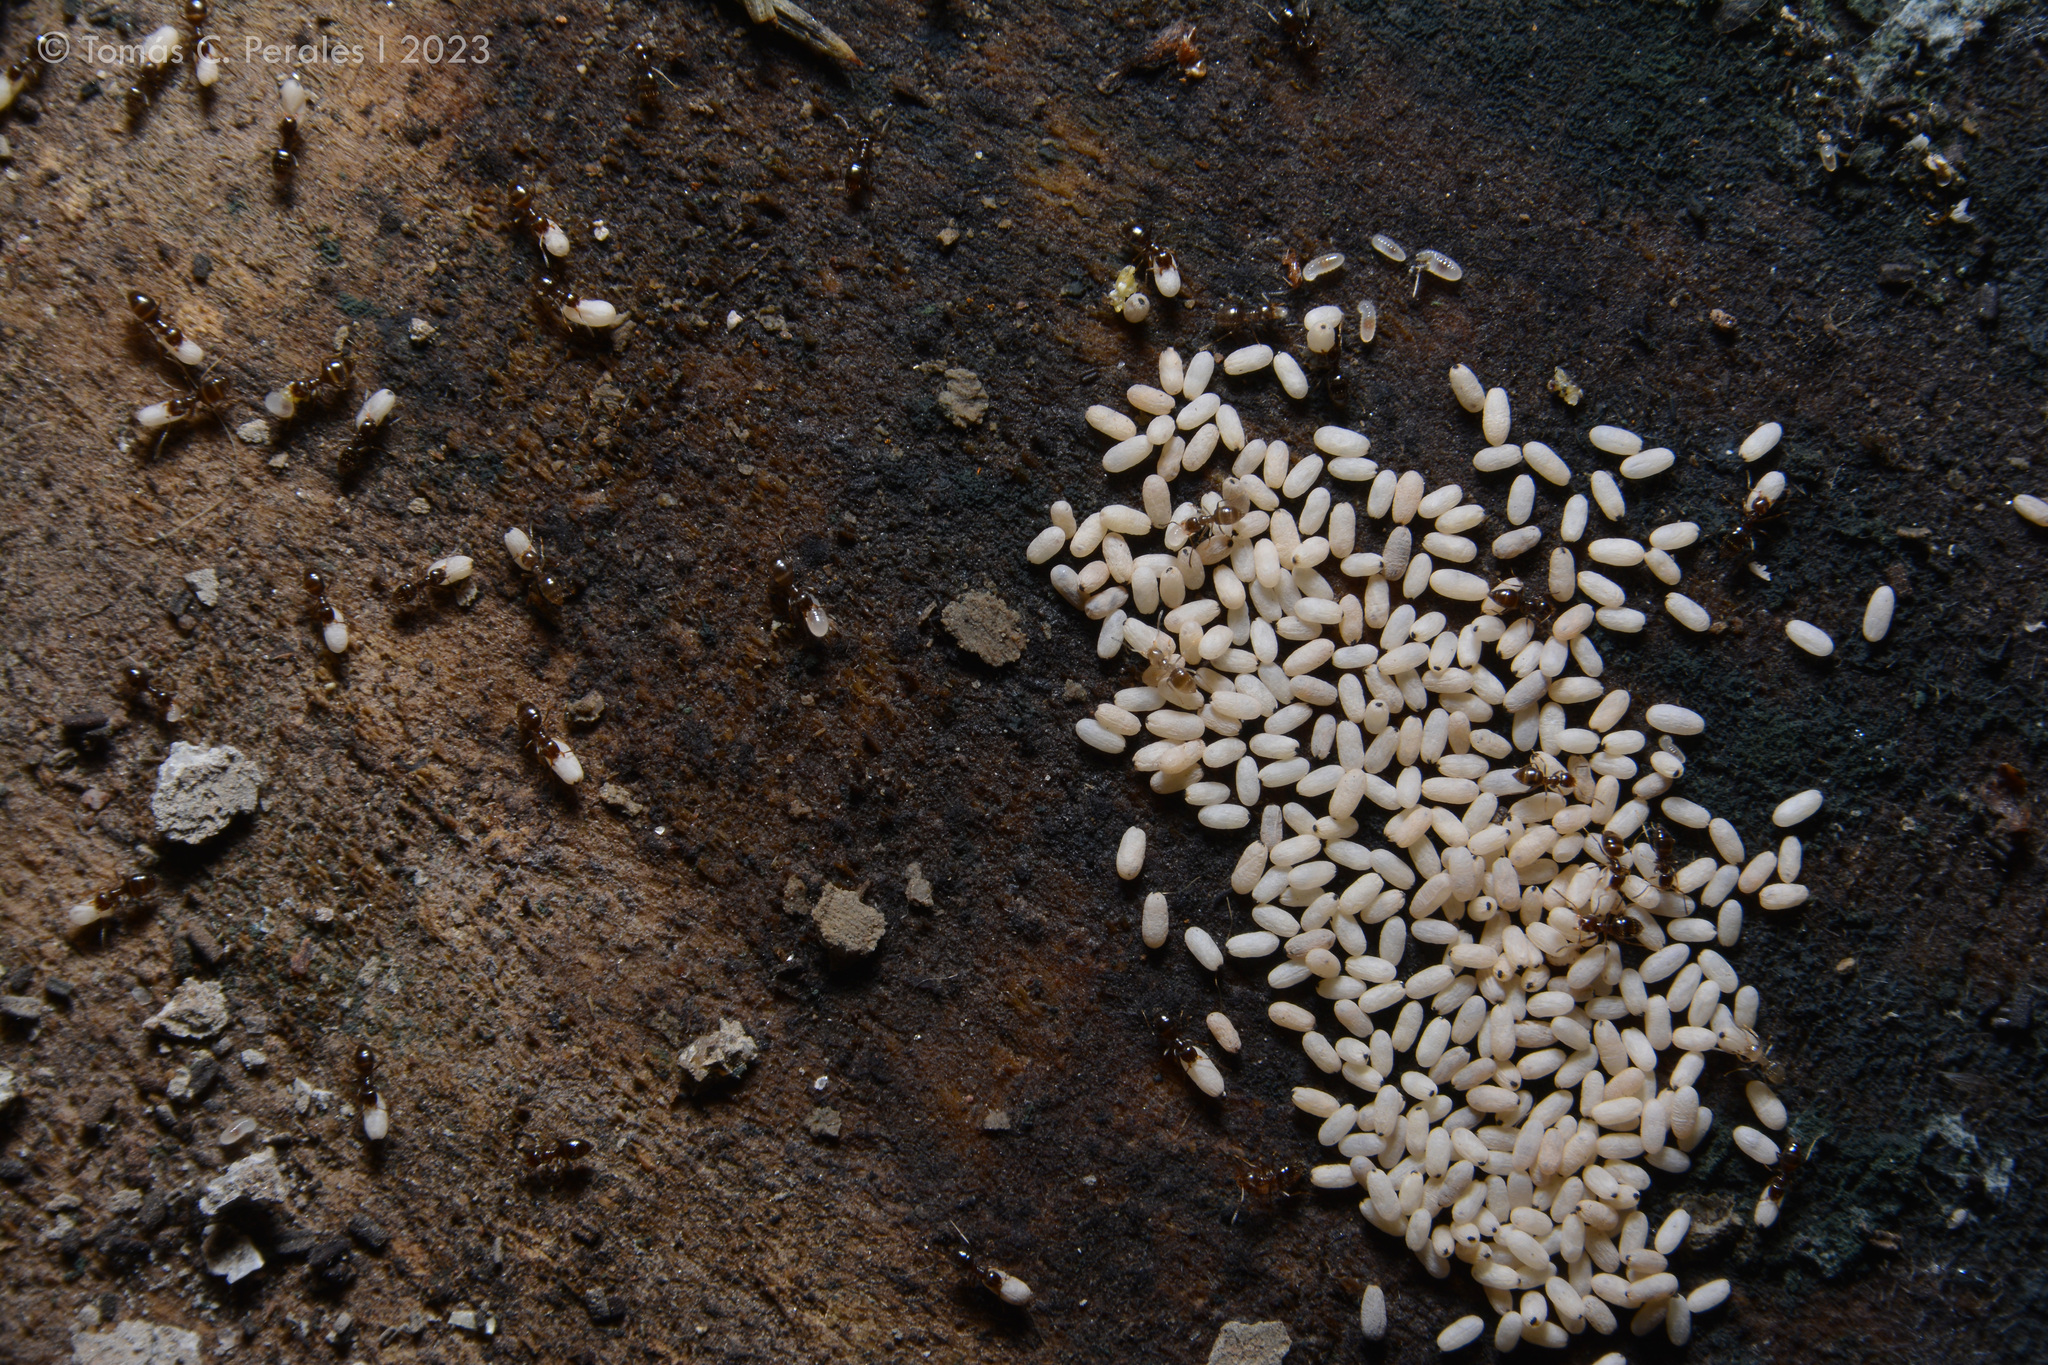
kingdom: Animalia
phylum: Arthropoda
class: Arachnida
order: Araneae
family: Ctenidae
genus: Asthenoctenus
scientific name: Asthenoctenus borellii
